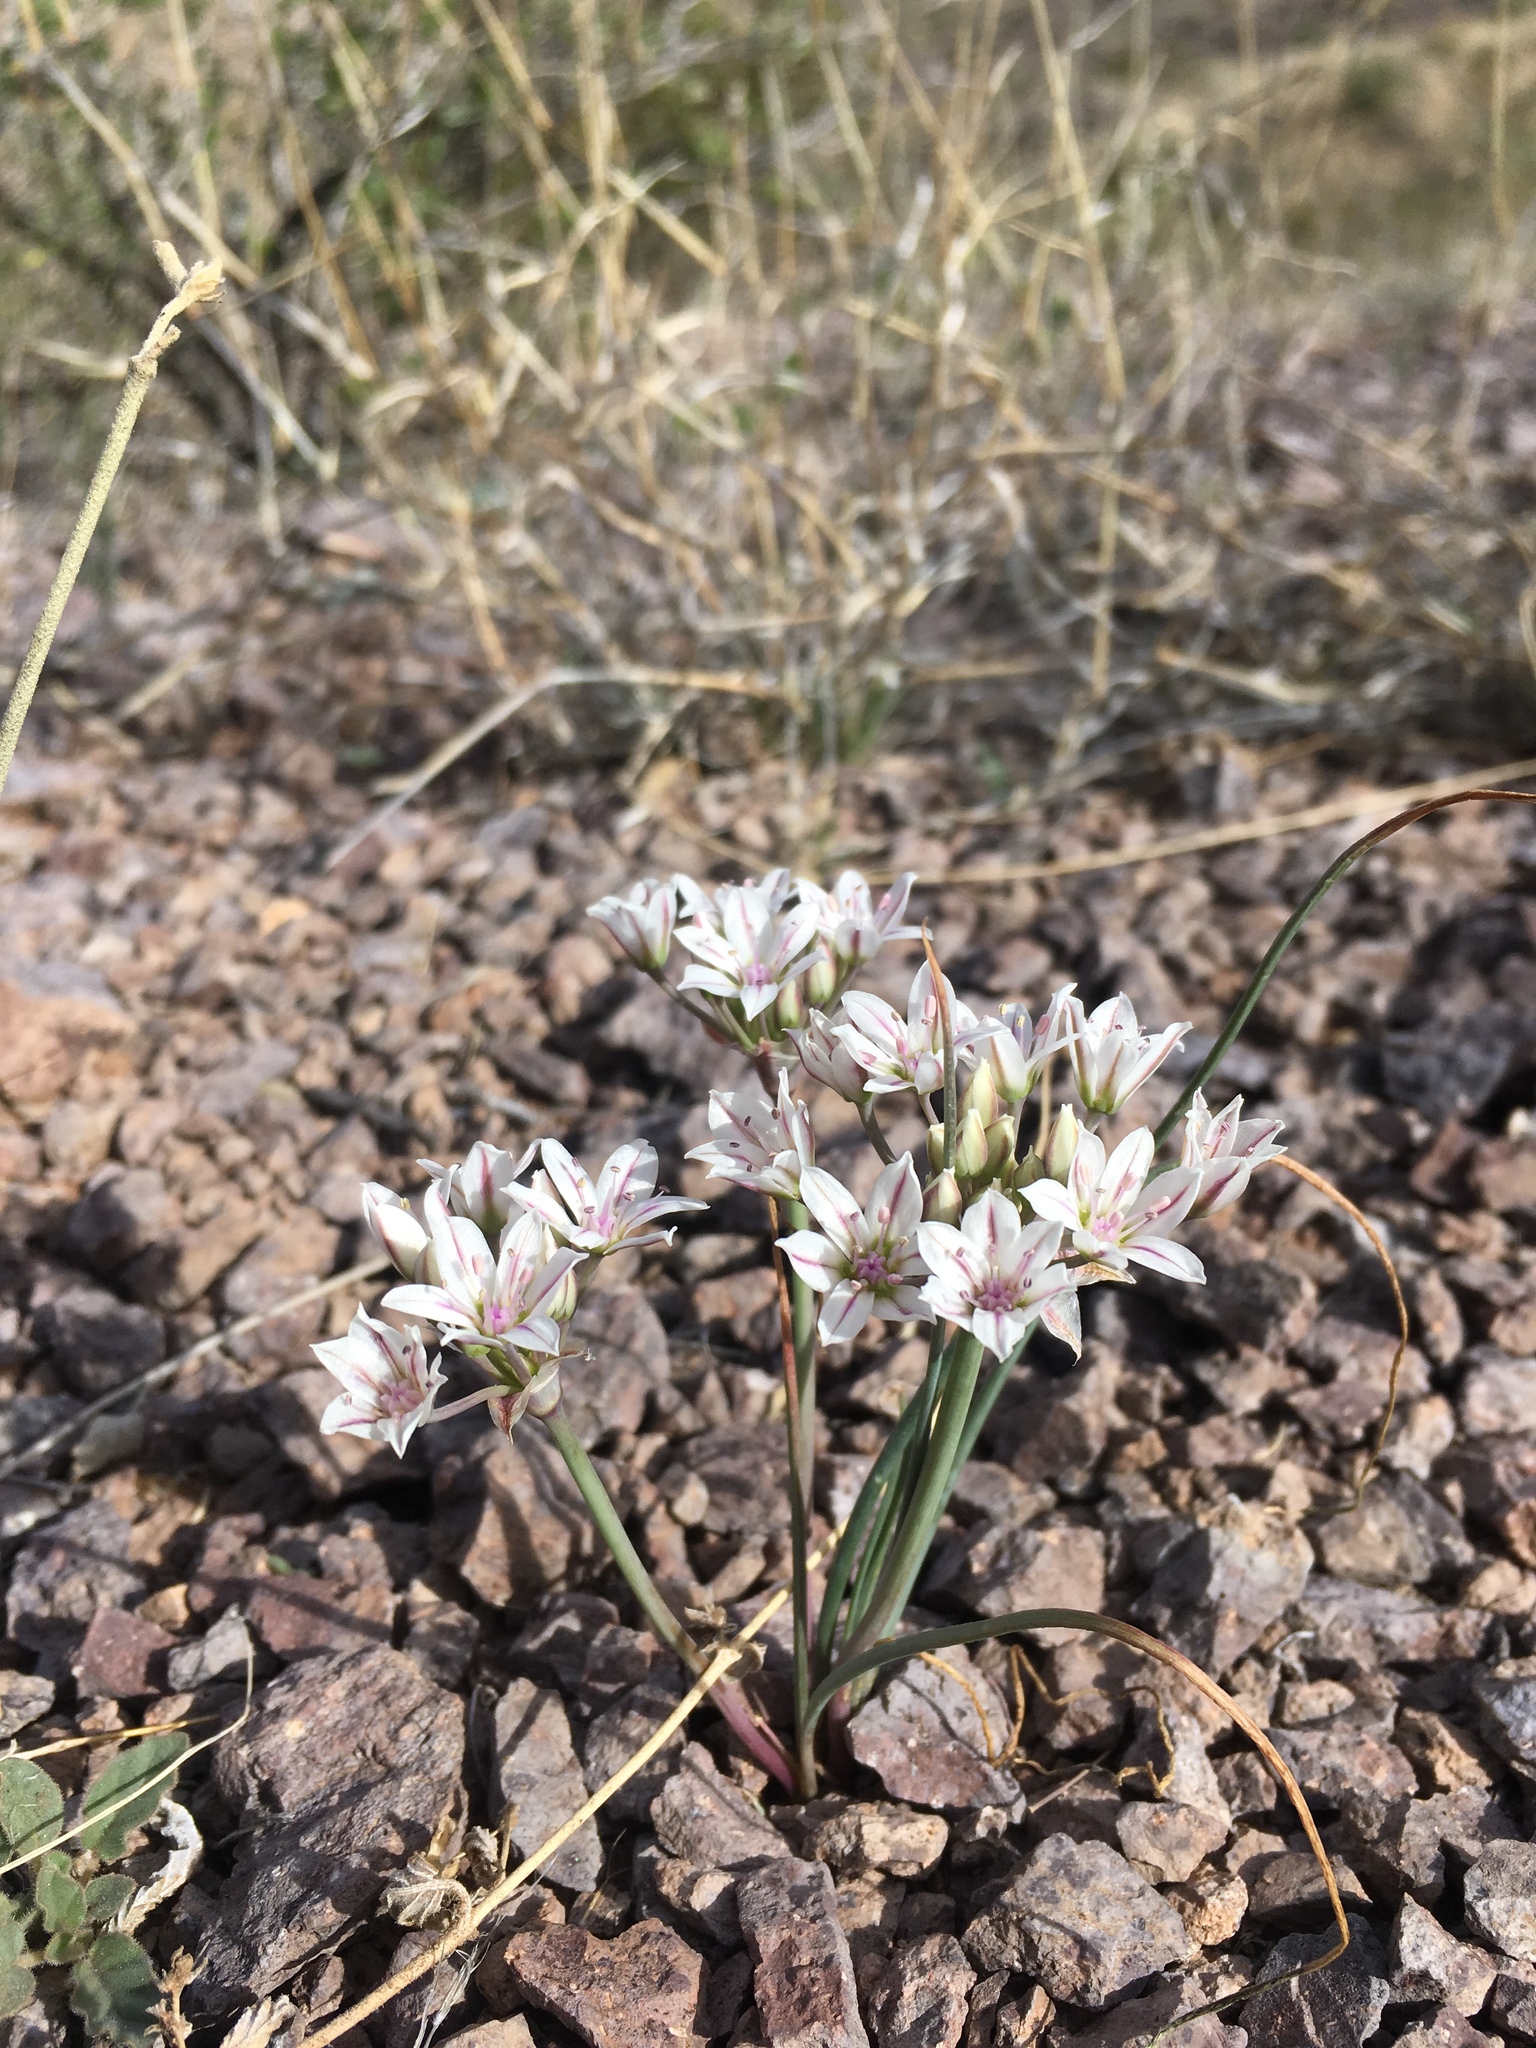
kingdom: Plantae
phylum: Tracheophyta
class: Liliopsida
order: Asparagales
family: Amaryllidaceae
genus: Allium
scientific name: Allium macropetalum
